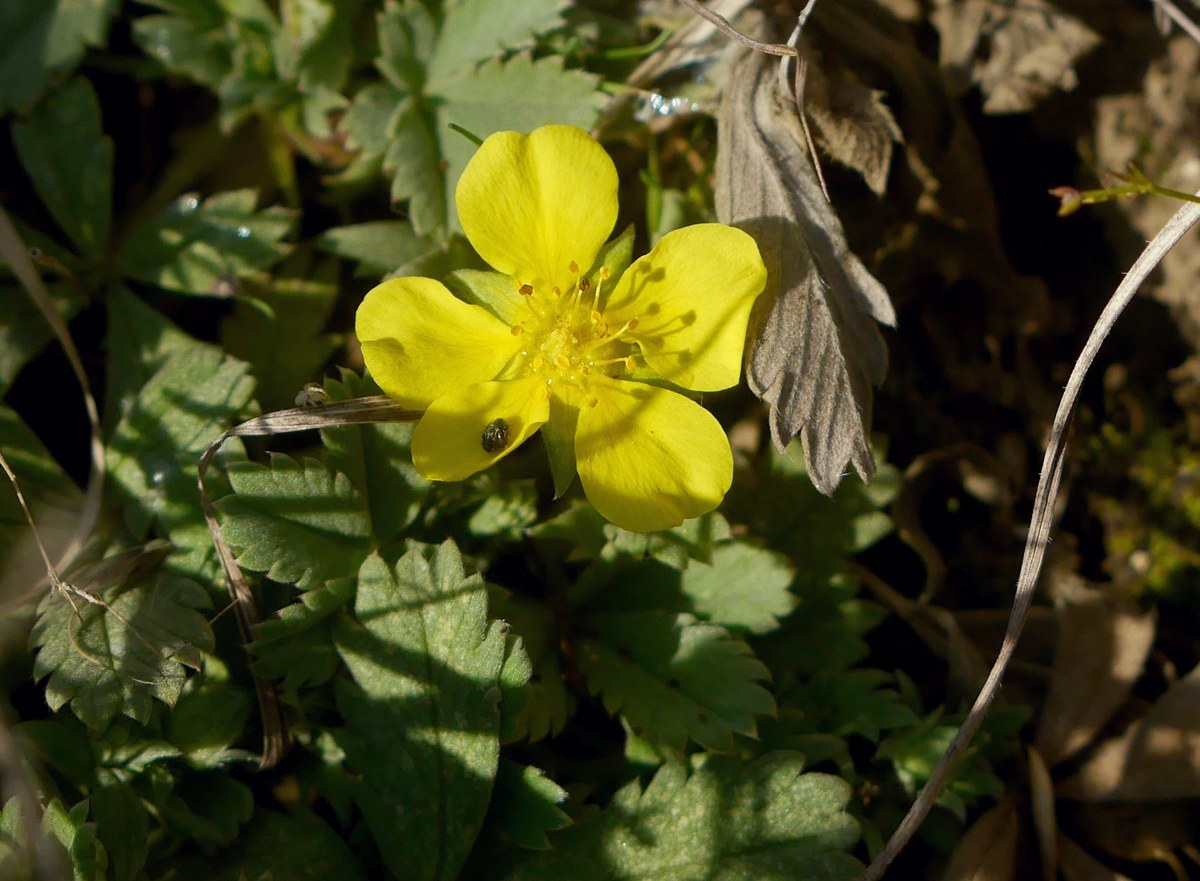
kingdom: Plantae
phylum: Tracheophyta
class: Magnoliopsida
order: Rosales
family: Rosaceae
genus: Potentilla
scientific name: Potentilla incana
